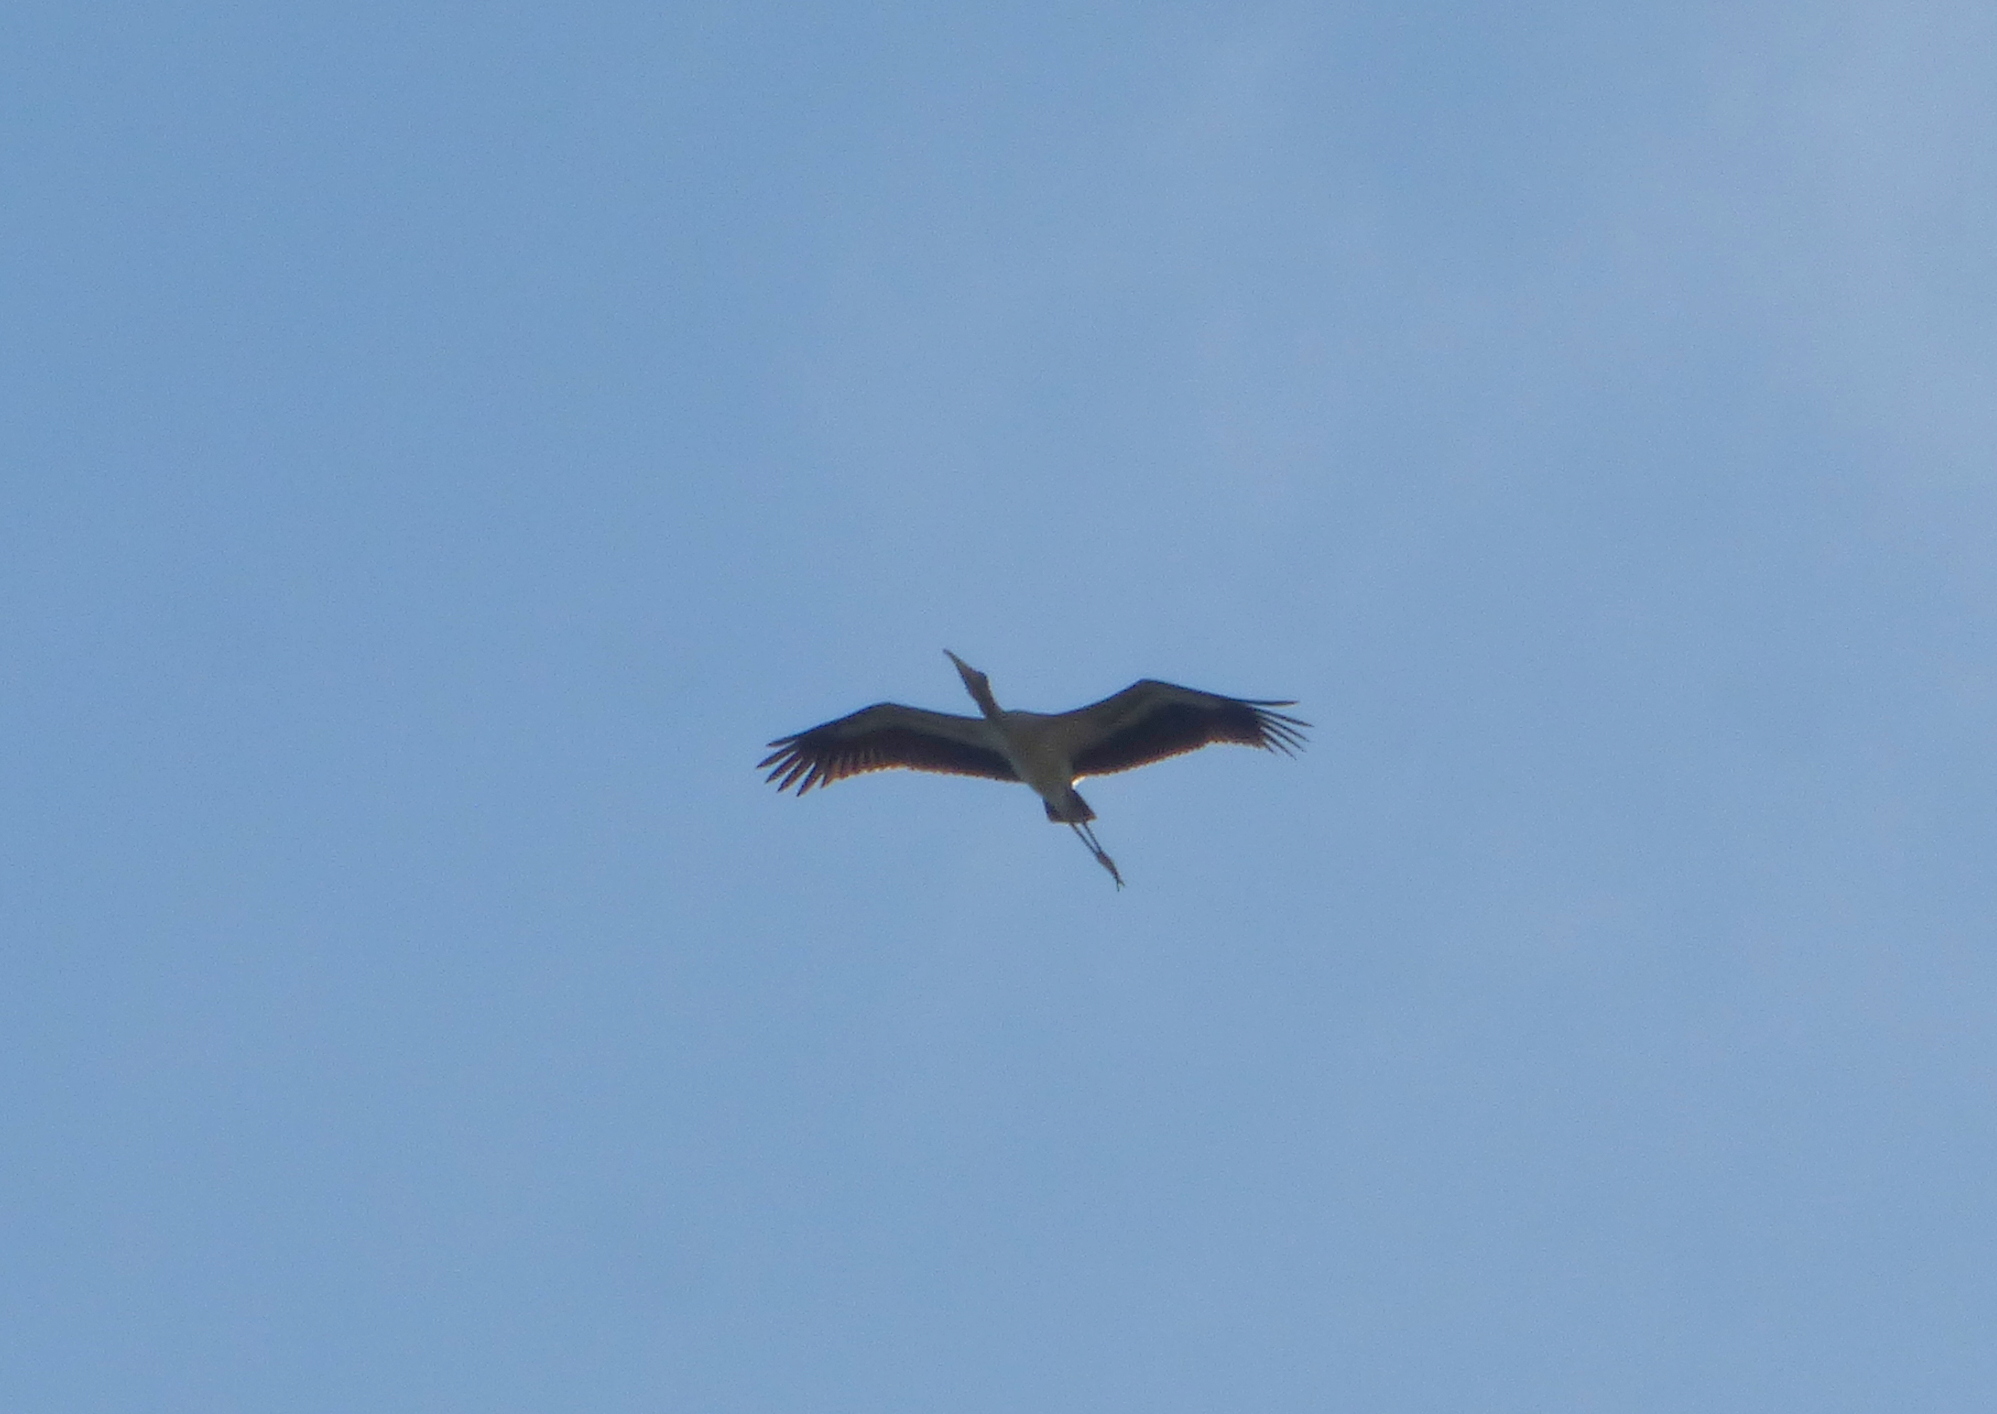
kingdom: Animalia
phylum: Chordata
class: Aves
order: Ciconiiformes
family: Ciconiidae
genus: Mycteria
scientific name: Mycteria americana
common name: Wood stork
